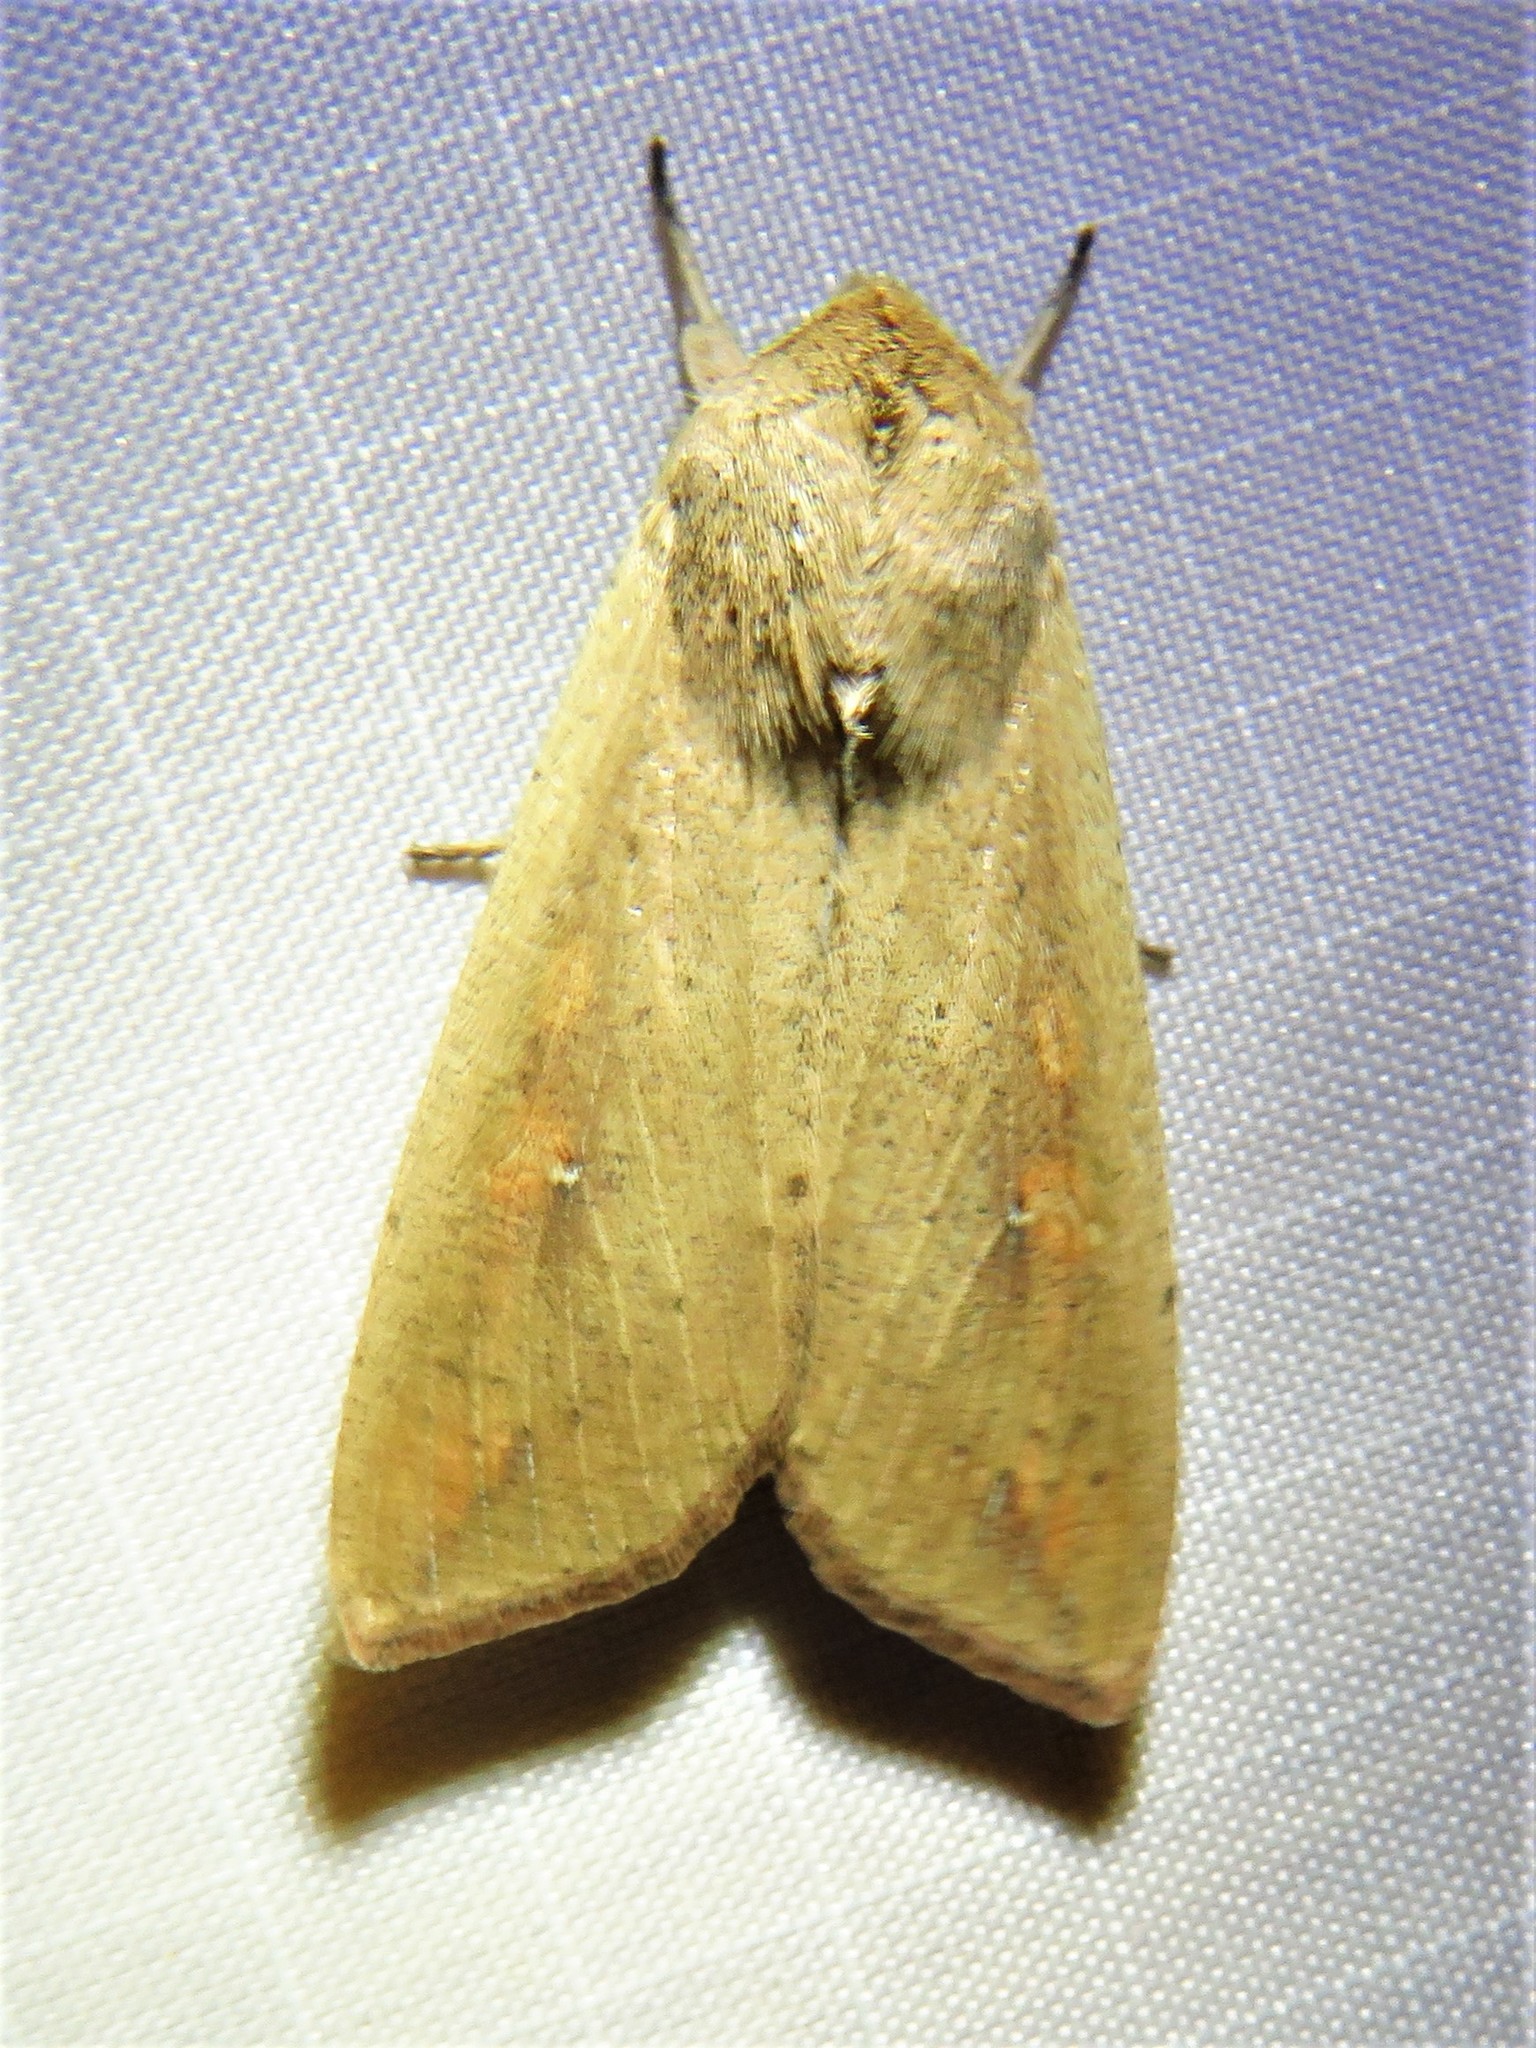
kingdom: Animalia
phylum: Arthropoda
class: Insecta
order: Lepidoptera
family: Noctuidae
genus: Mythimna
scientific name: Mythimna unipuncta
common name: White-speck
